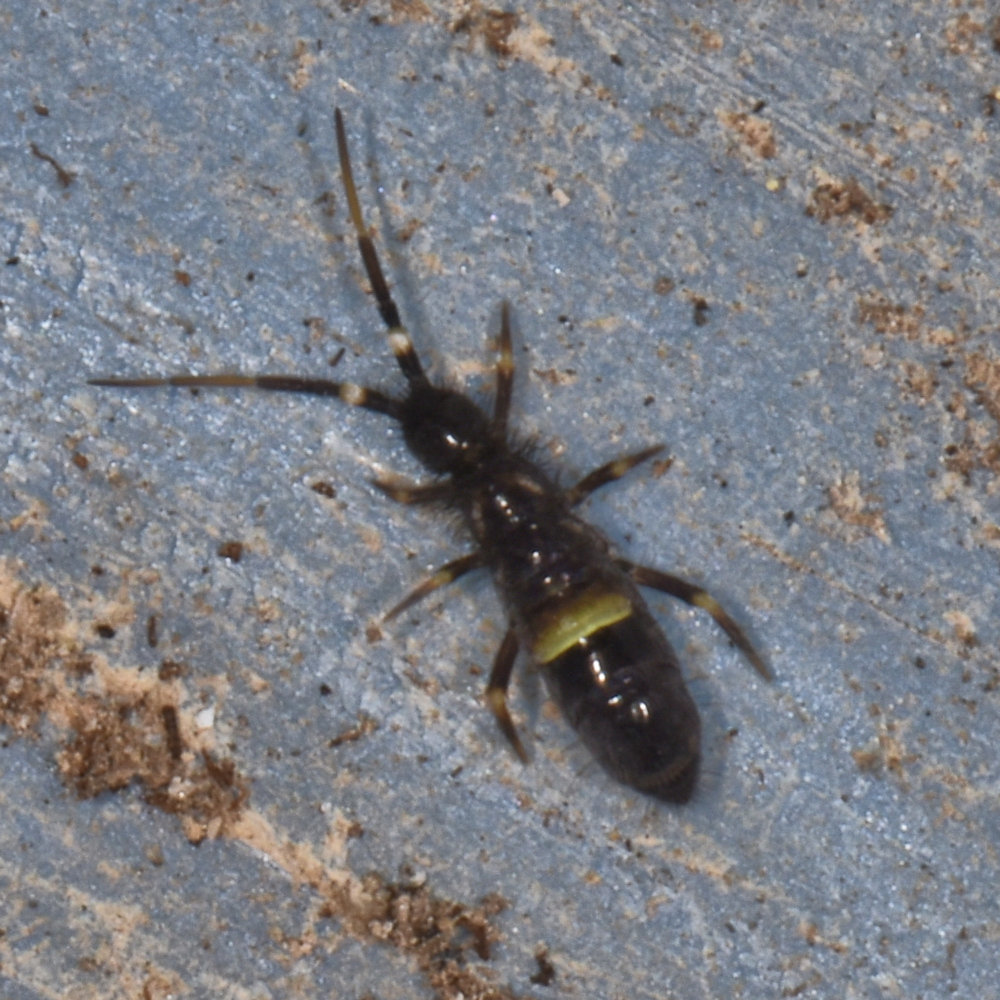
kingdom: Animalia
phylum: Arthropoda
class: Collembola
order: Entomobryomorpha
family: Orchesellidae
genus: Orchesella
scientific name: Orchesella cincta
